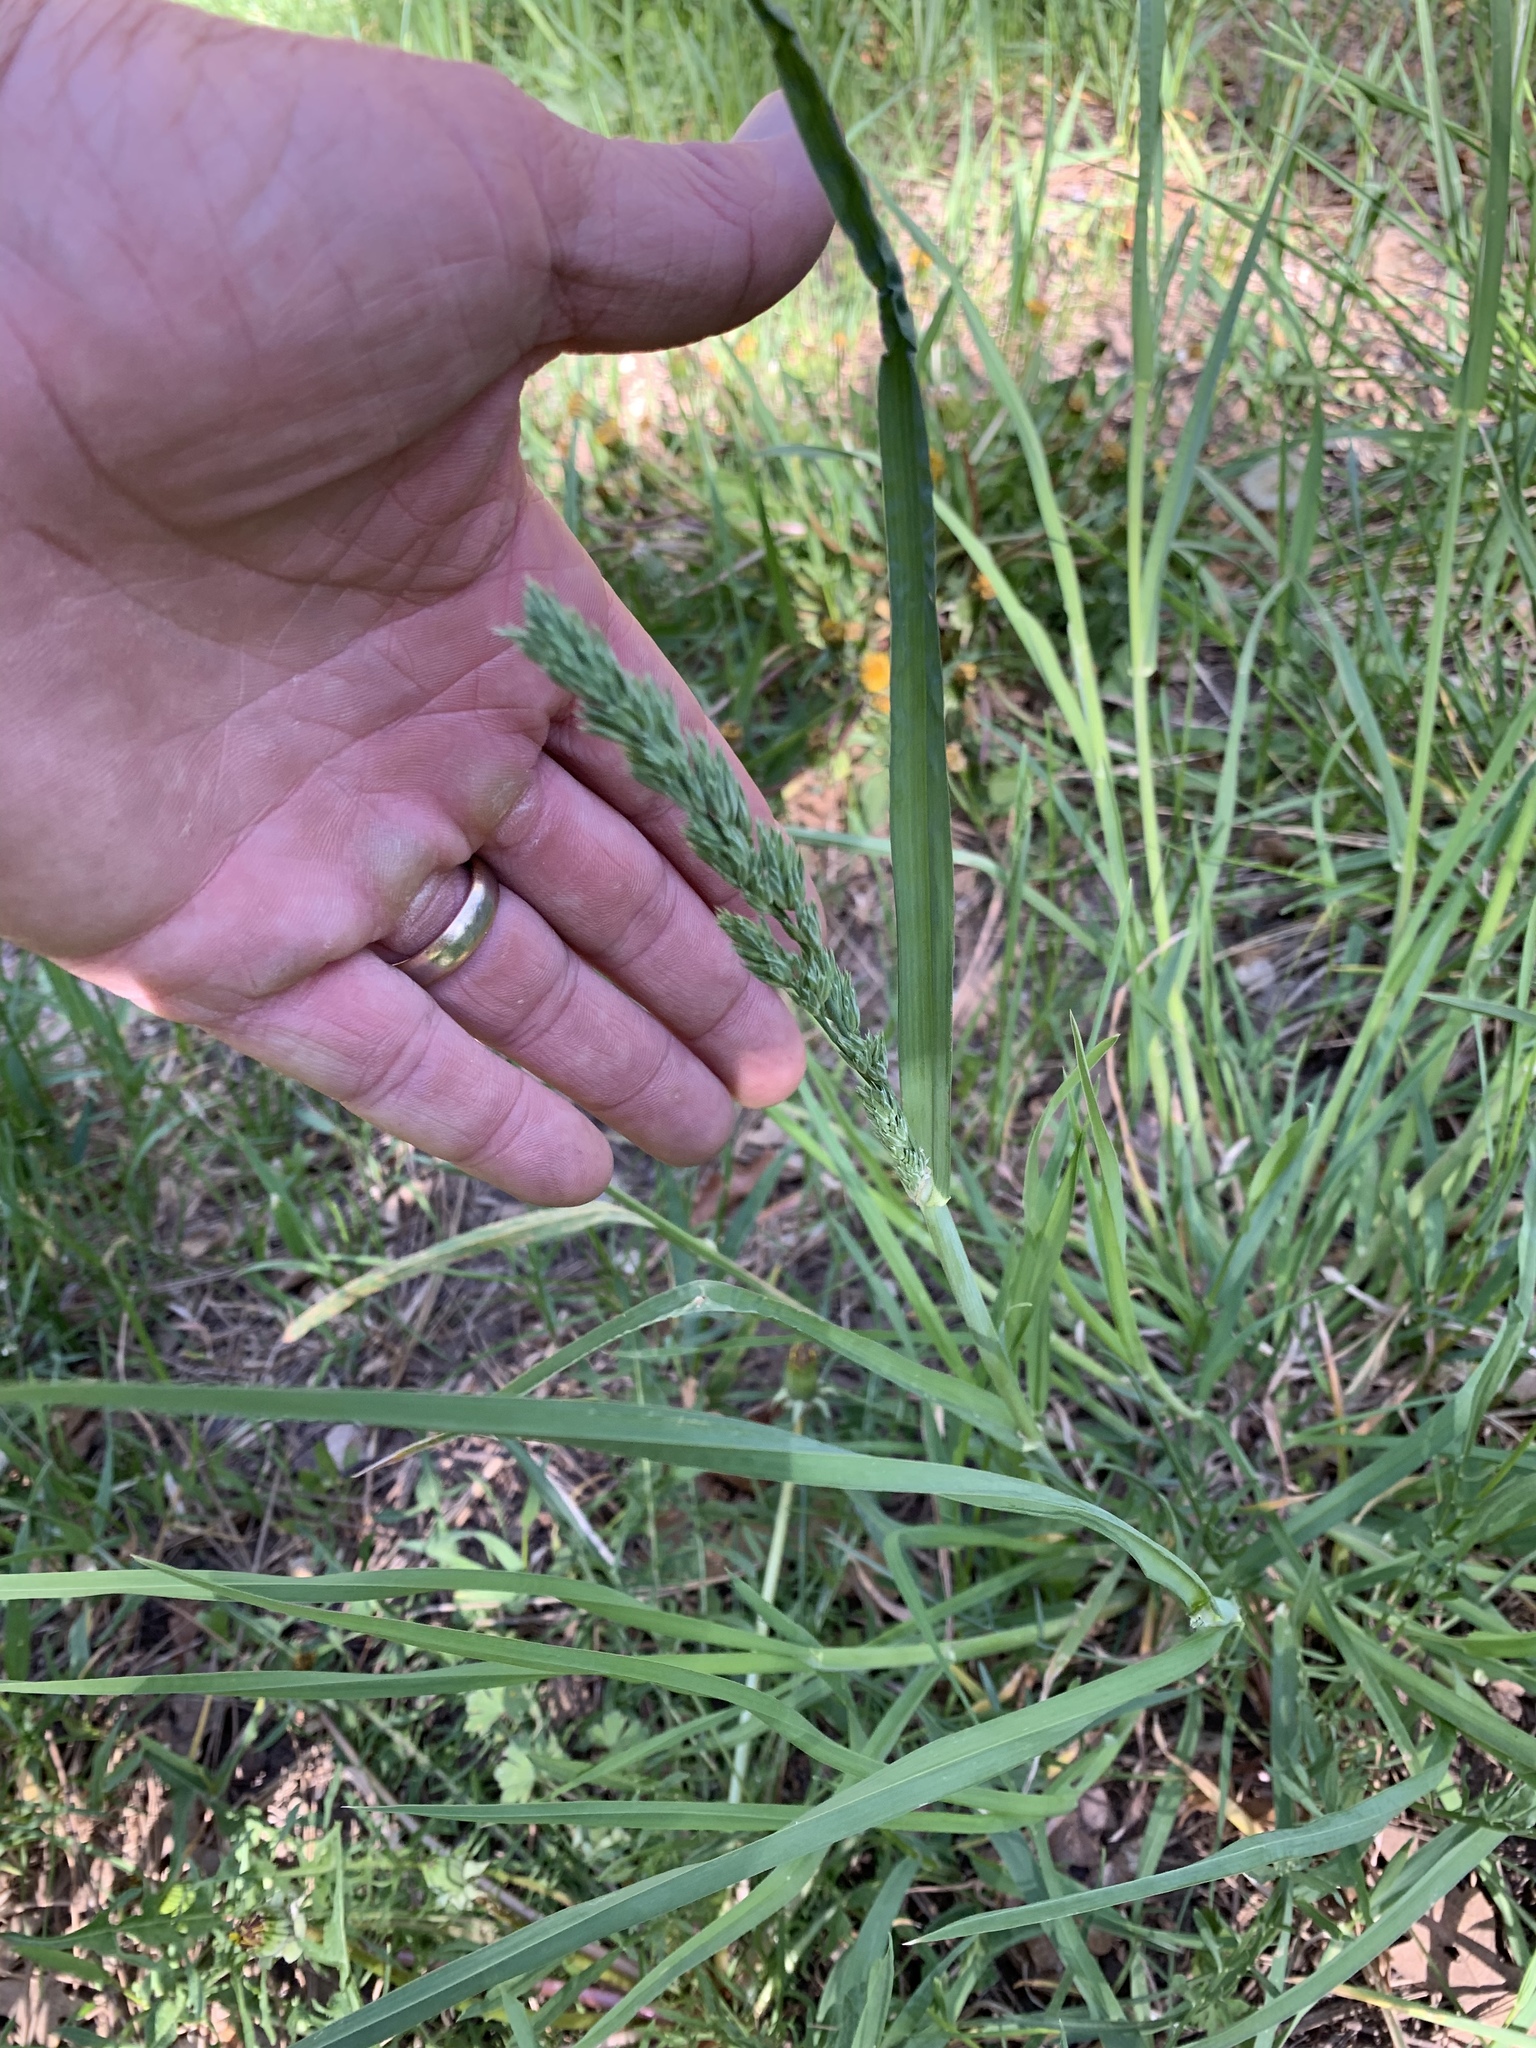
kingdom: Plantae
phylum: Tracheophyta
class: Liliopsida
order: Poales
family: Poaceae
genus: Dactylis
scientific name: Dactylis glomerata
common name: Orchardgrass
